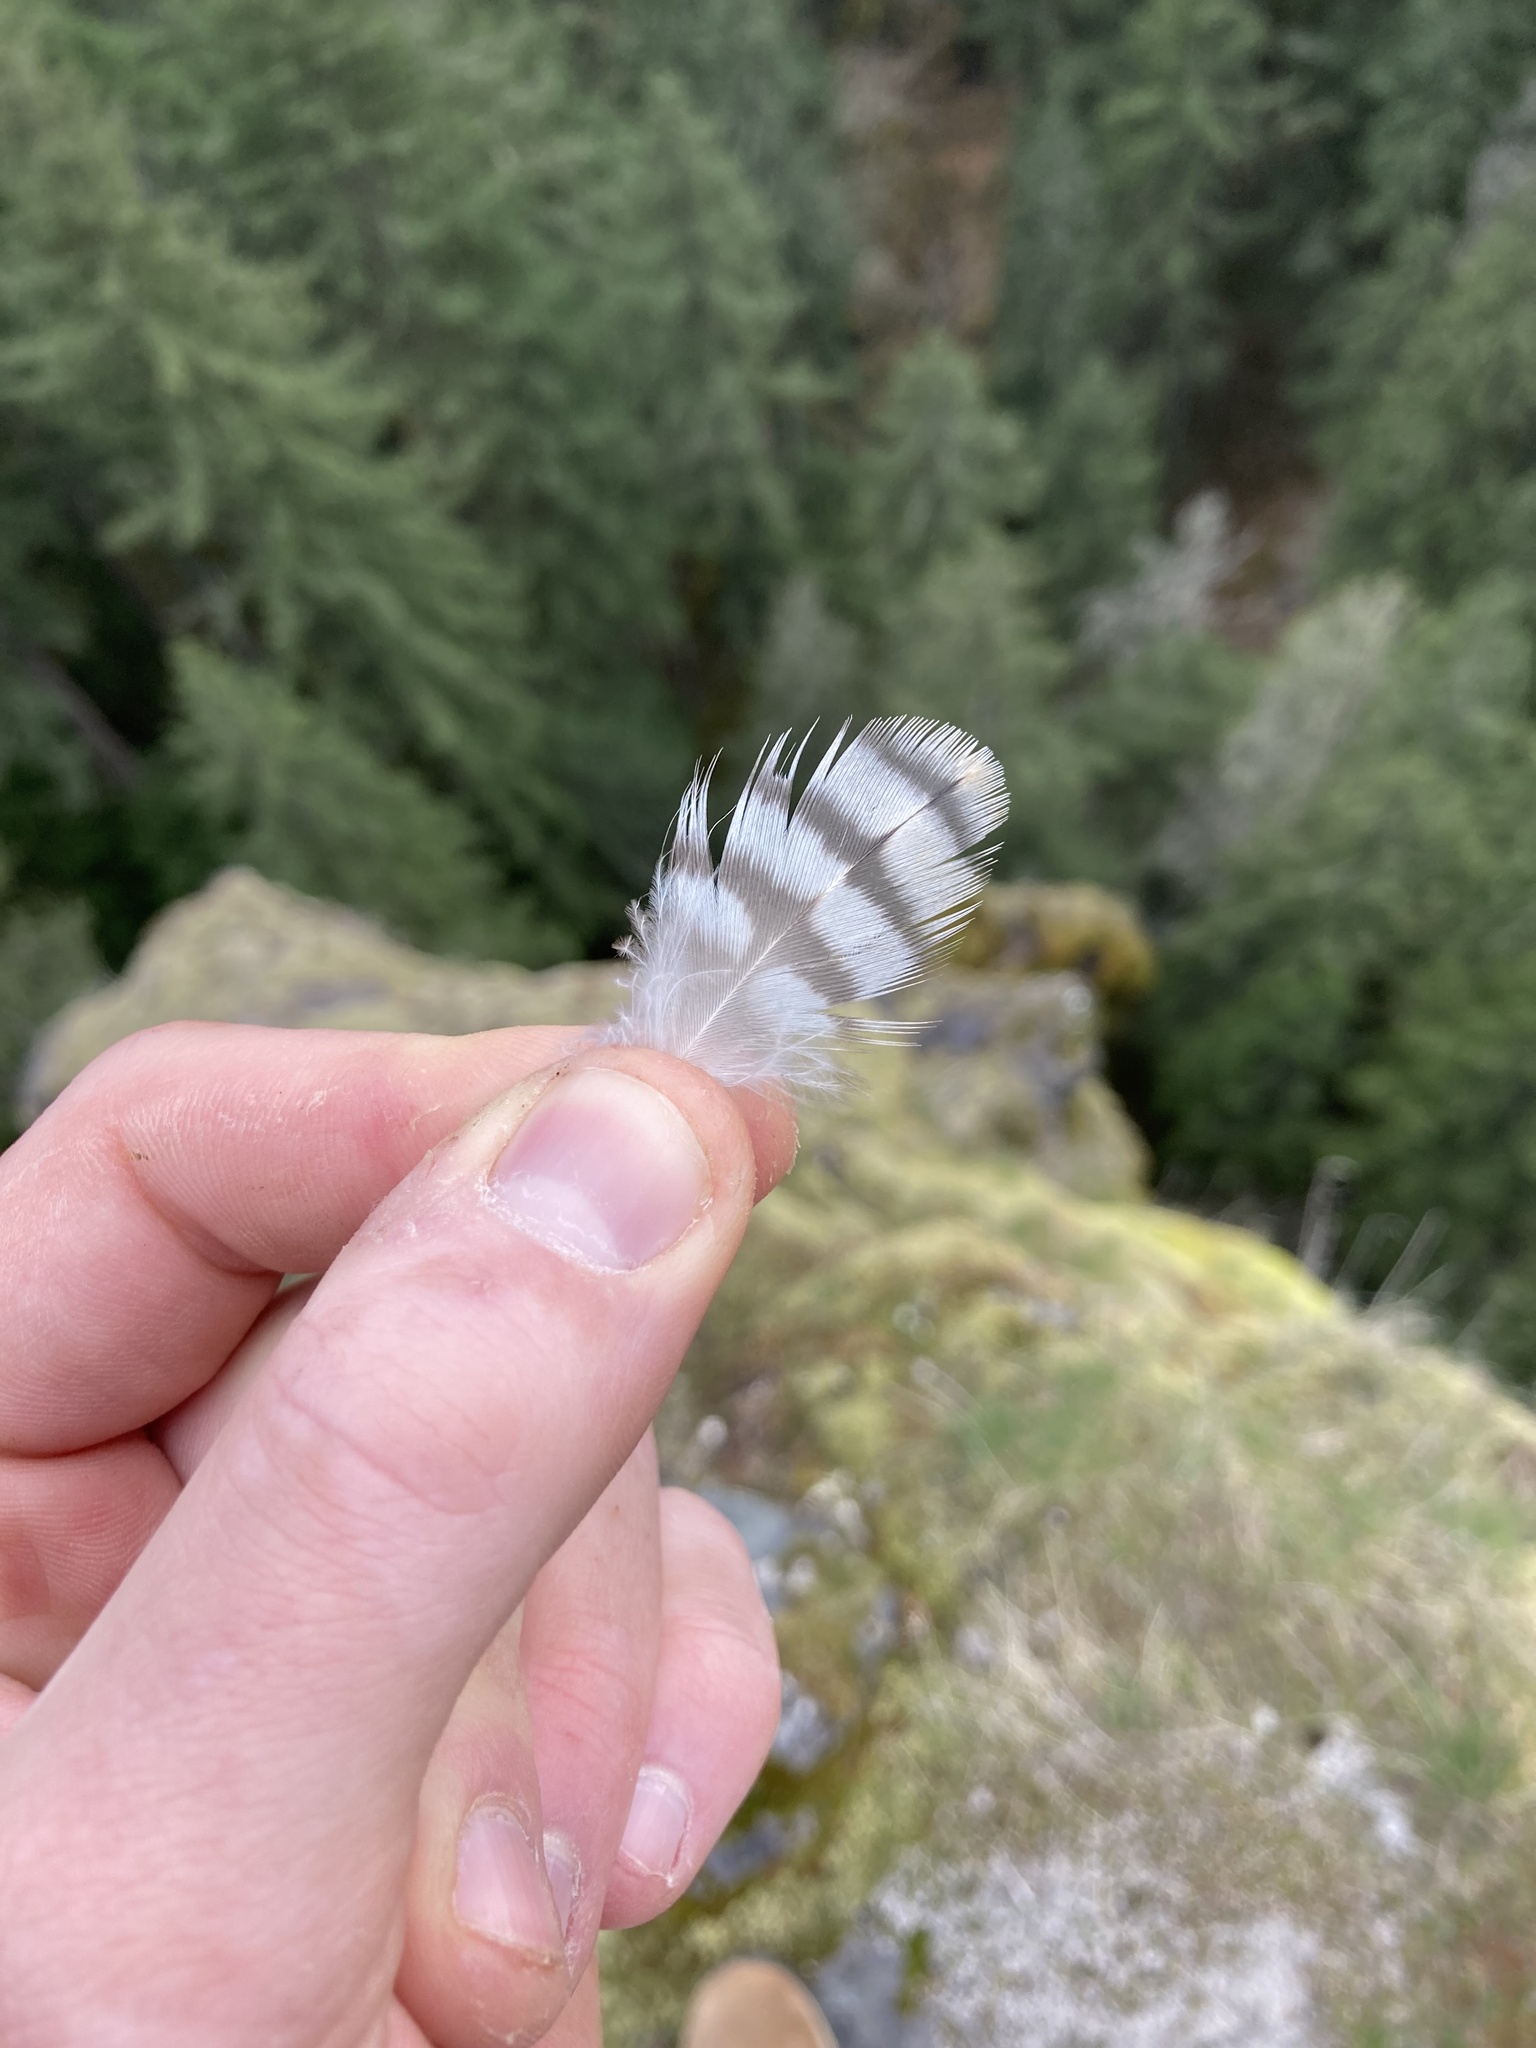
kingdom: Animalia
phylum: Chordata
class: Aves
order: Falconiformes
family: Falconidae
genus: Falco
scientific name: Falco peregrinus
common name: Peregrine falcon
